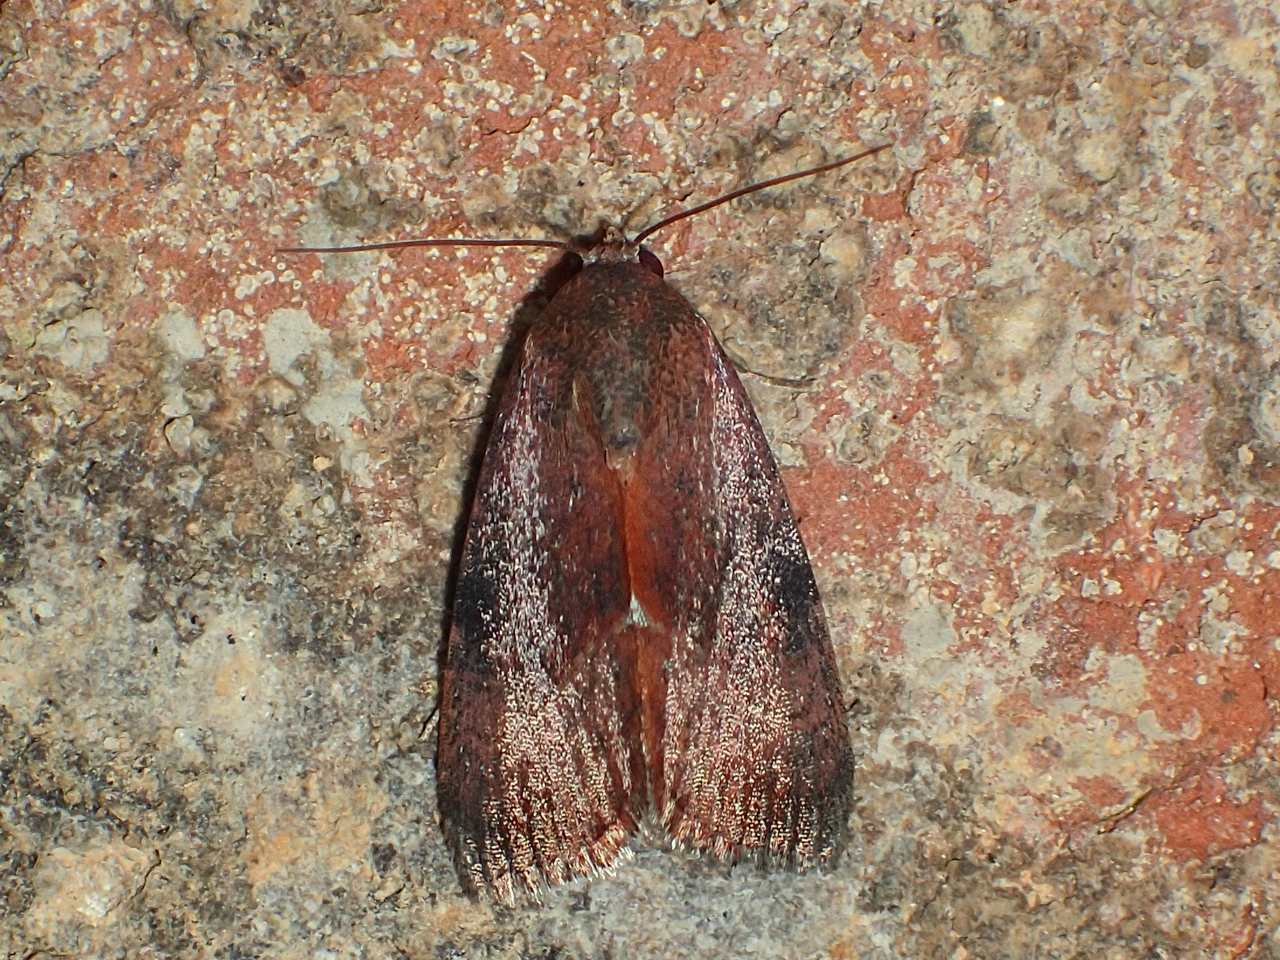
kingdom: Animalia
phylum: Arthropoda
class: Insecta
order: Lepidoptera
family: Noctuidae
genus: Galgula
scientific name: Galgula partita
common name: Wedgeling
